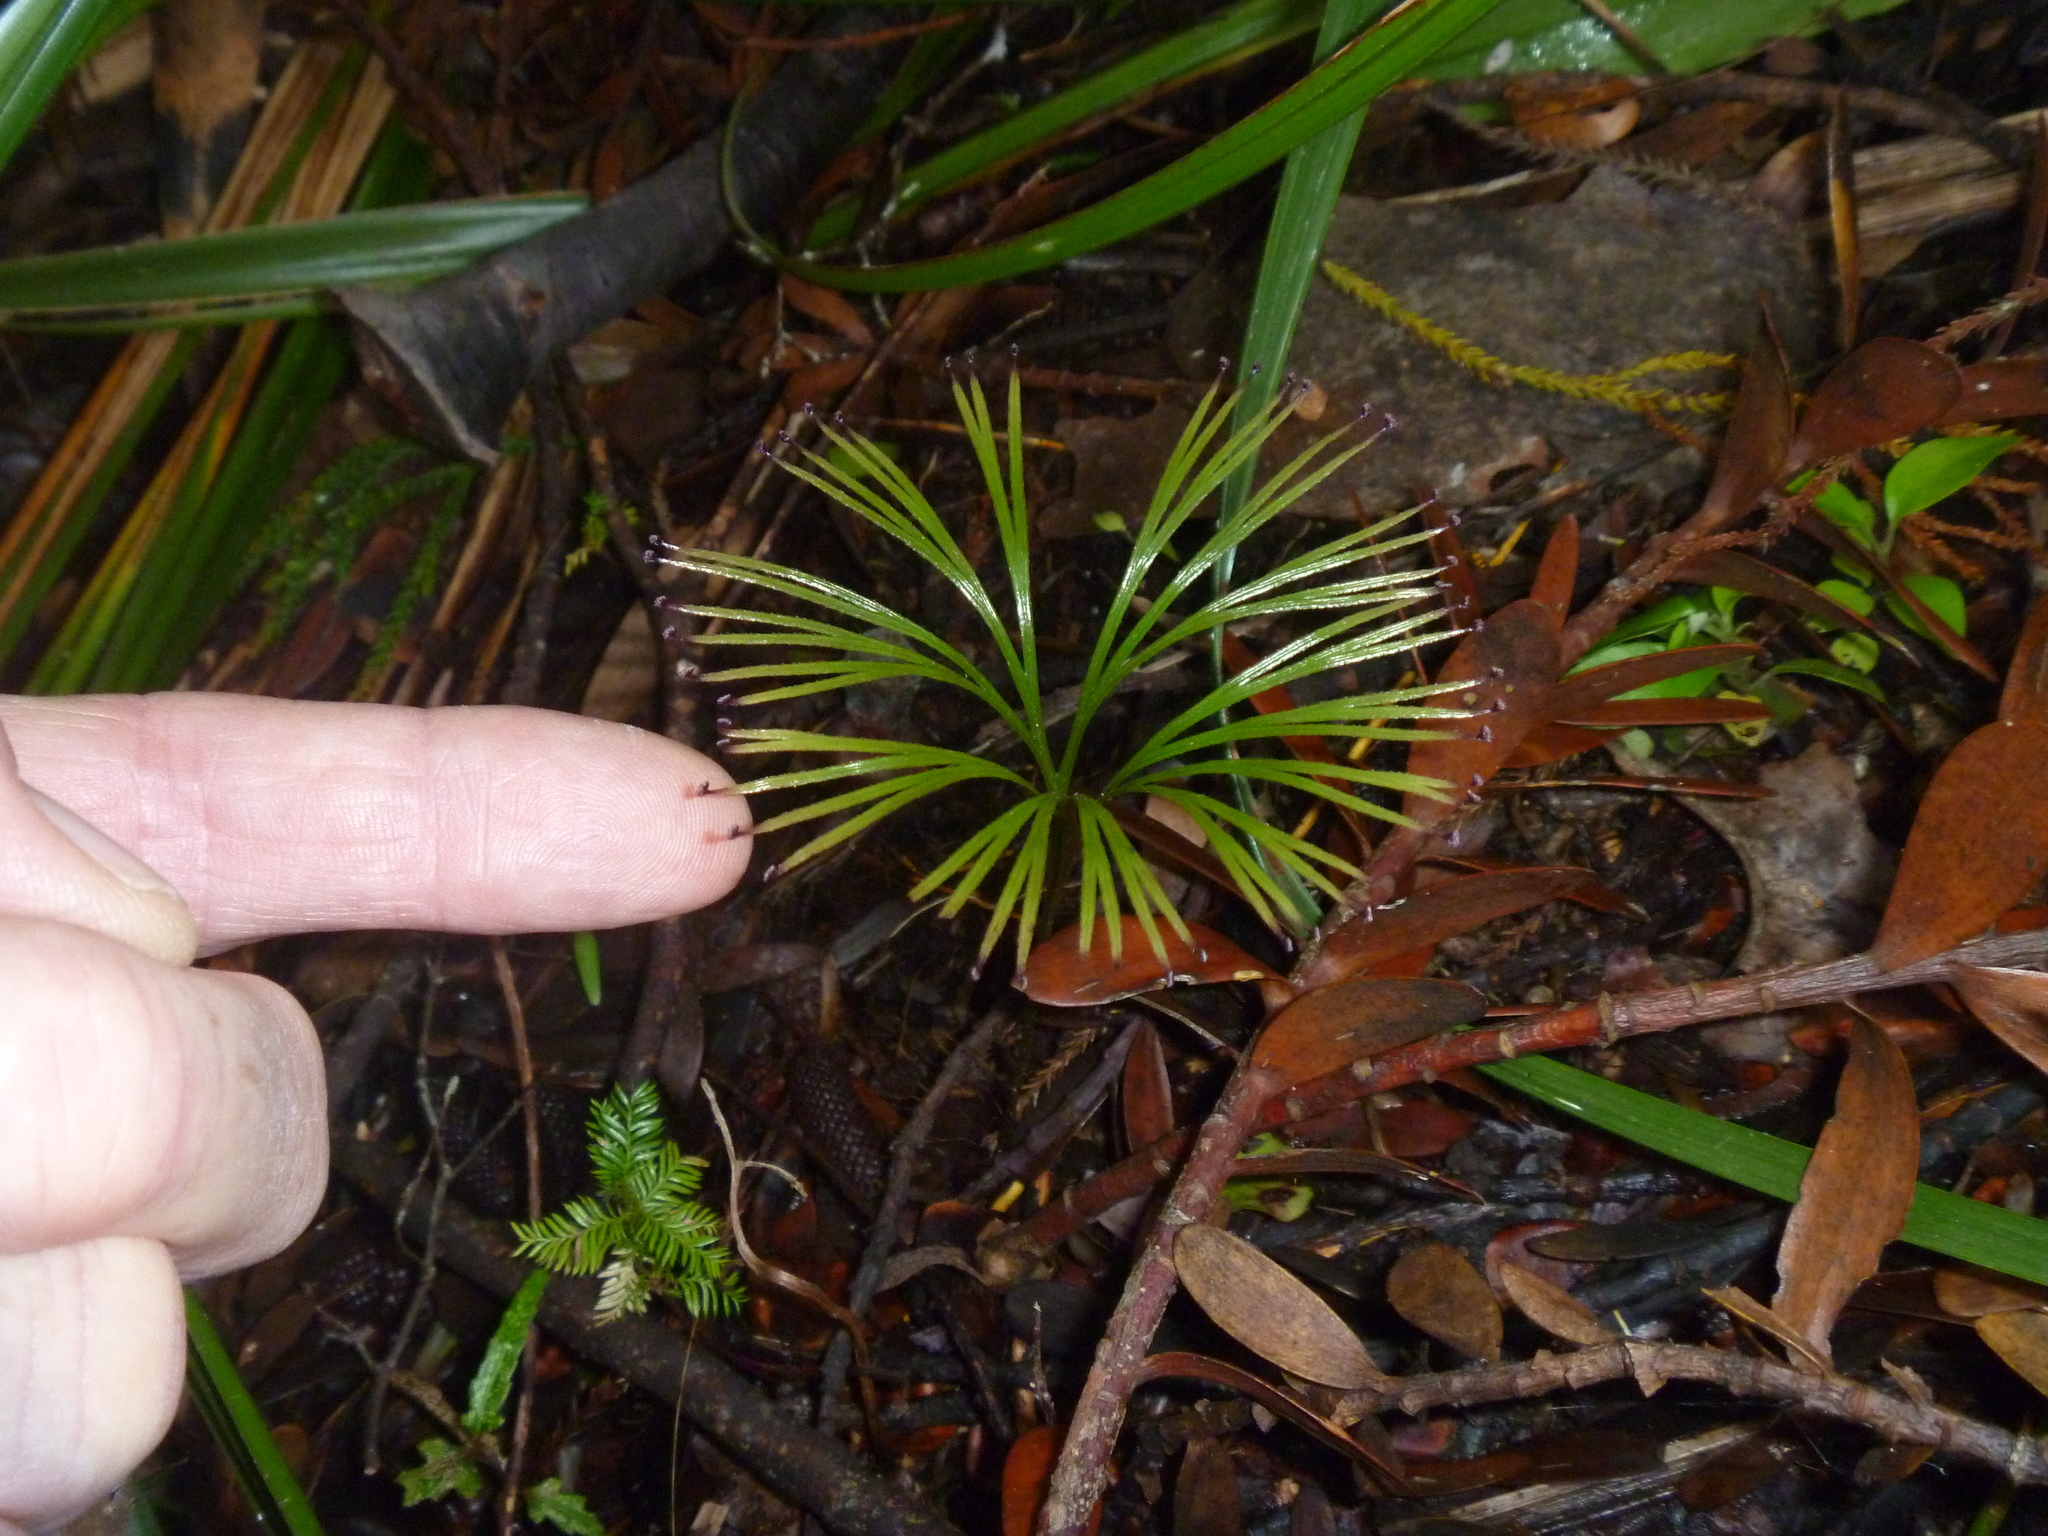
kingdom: Plantae
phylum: Tracheophyta
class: Polypodiopsida
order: Schizaeales
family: Schizaeaceae
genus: Schizaea
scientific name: Schizaea dichotoma
